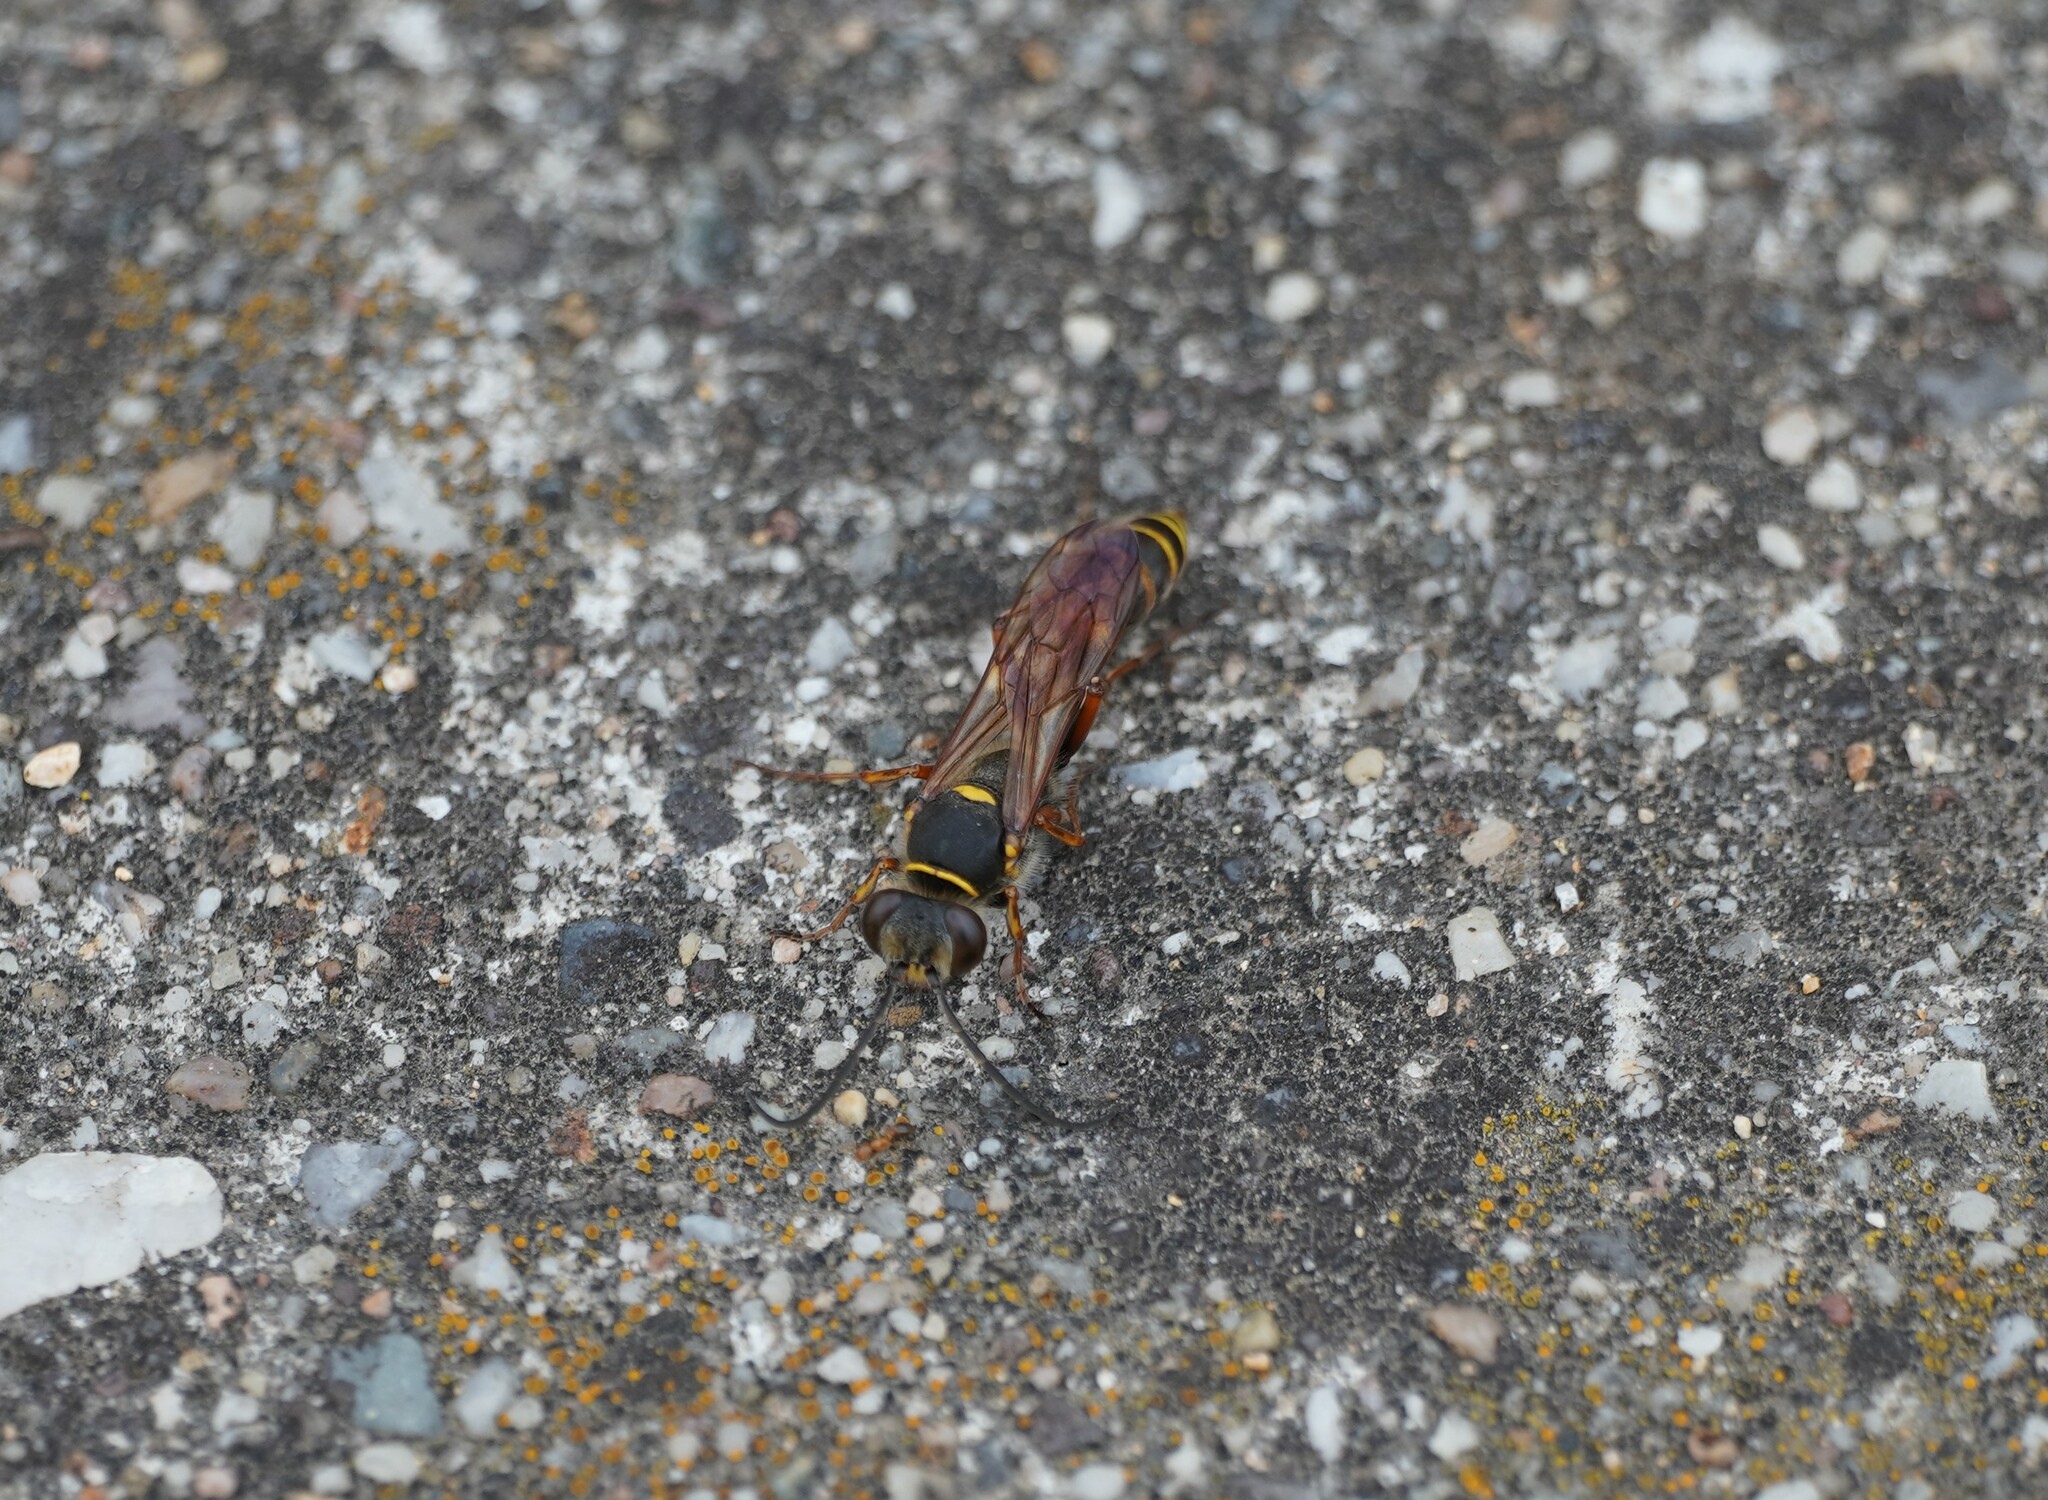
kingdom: Animalia
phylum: Arthropoda
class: Insecta
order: Hymenoptera
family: Sphecidae
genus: Sceliphron
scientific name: Sceliphron curvatum
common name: Pèlopèe
